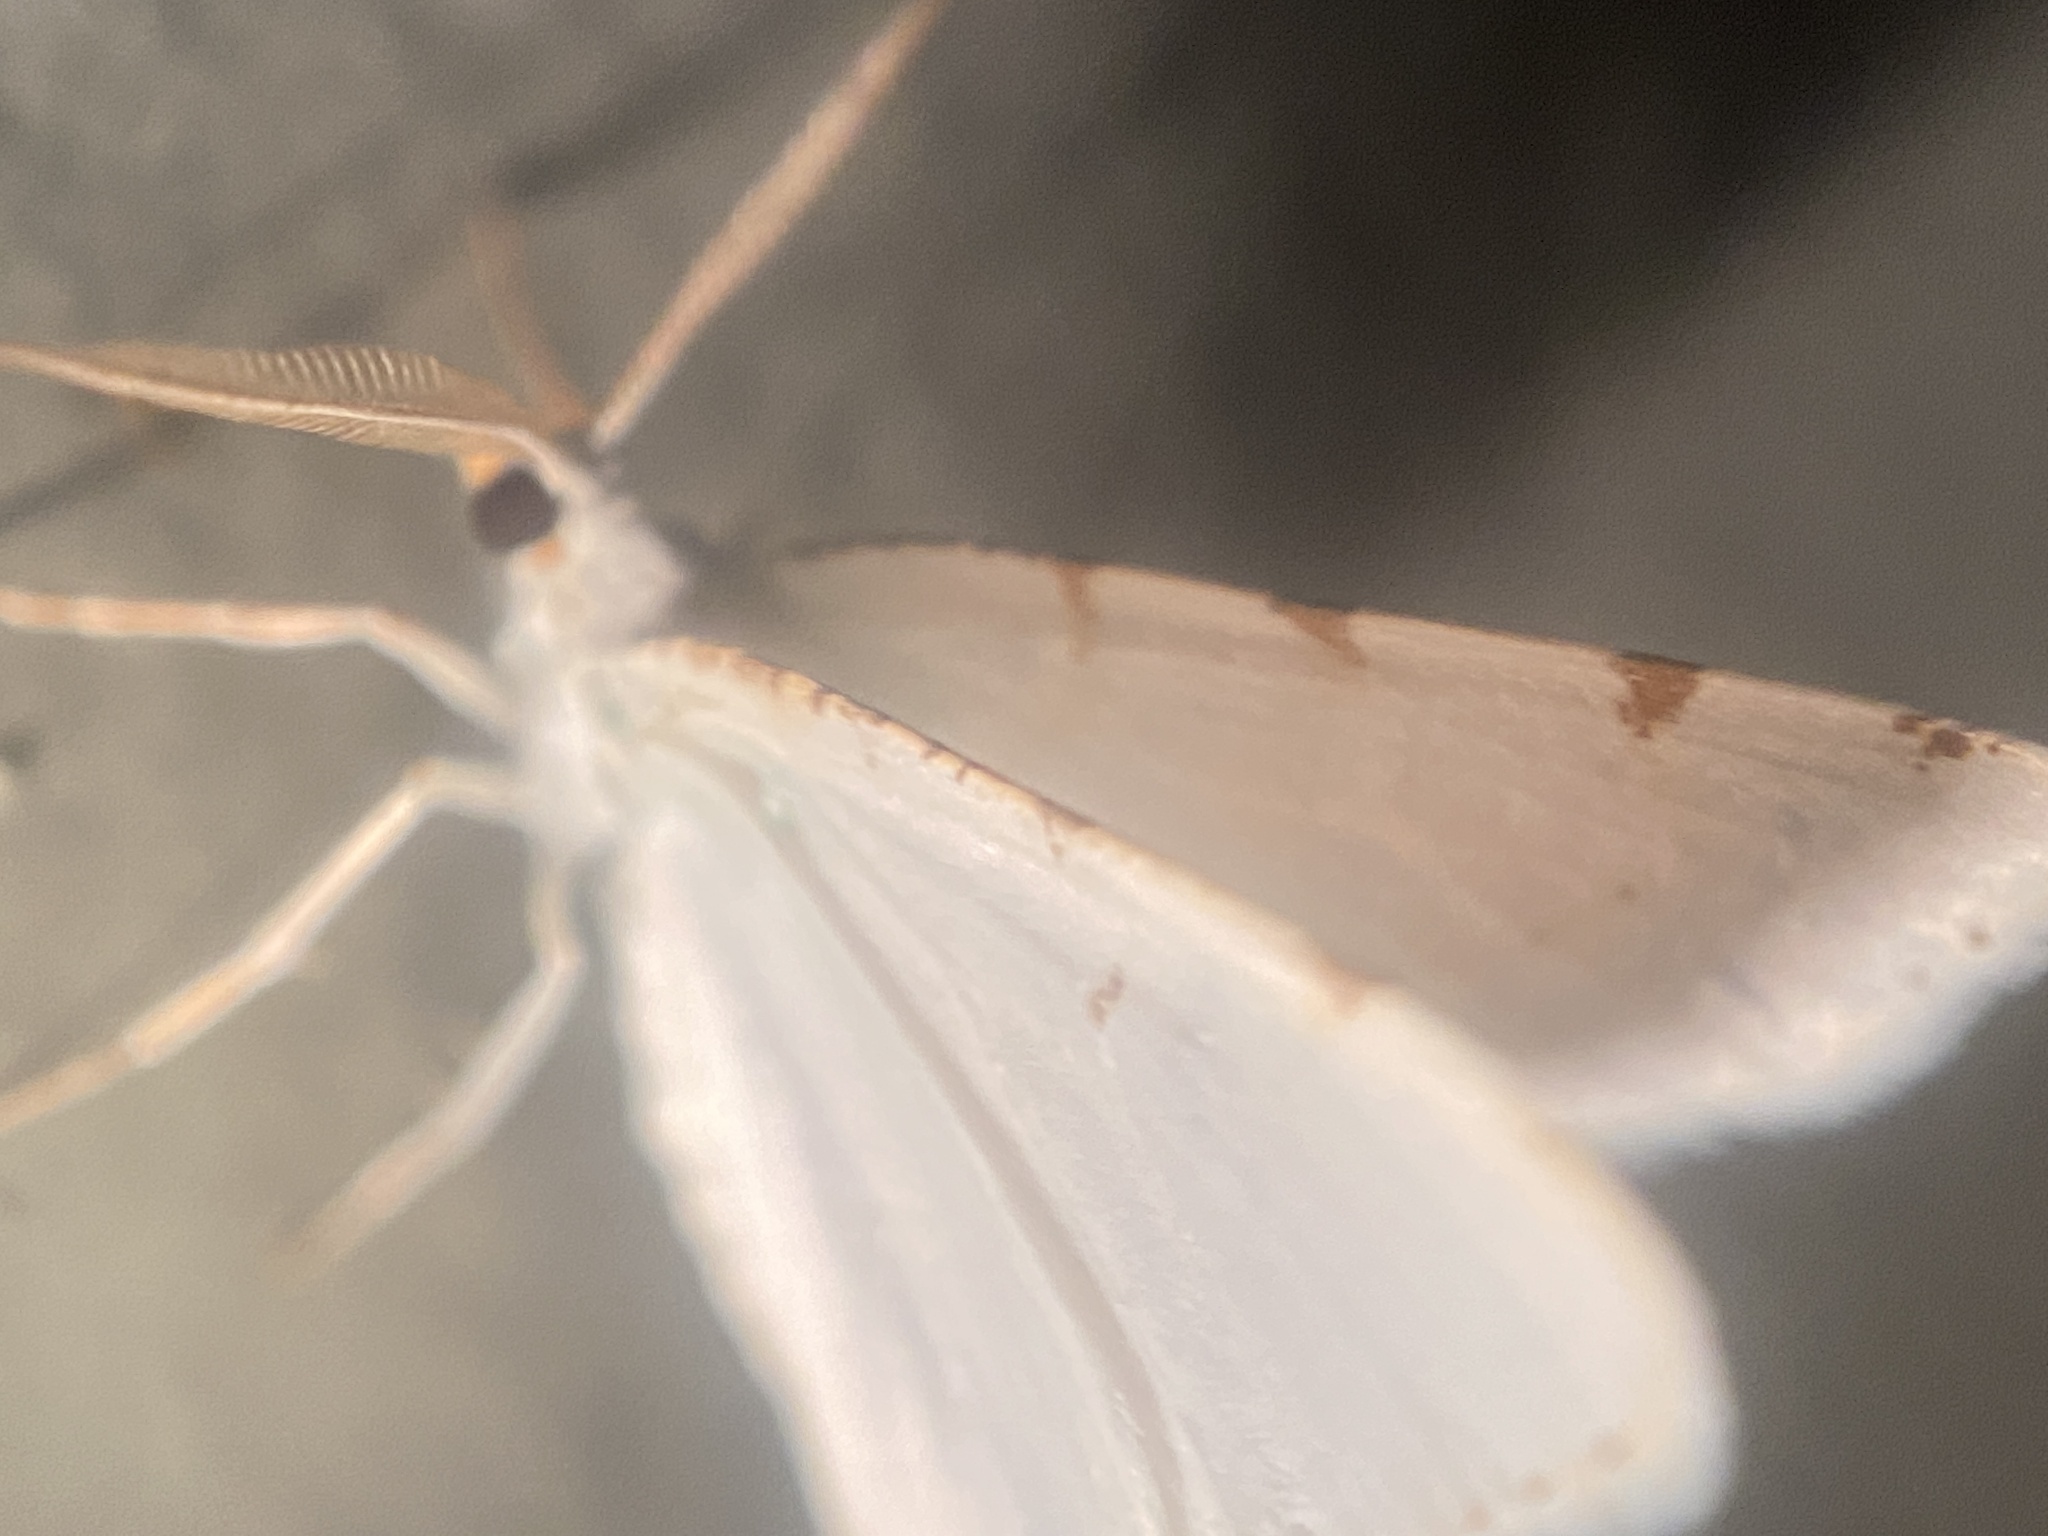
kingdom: Animalia
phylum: Arthropoda
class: Insecta
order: Lepidoptera
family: Geometridae
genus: Macaria
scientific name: Macaria pustularia
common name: Lesser maple spanworm moth
